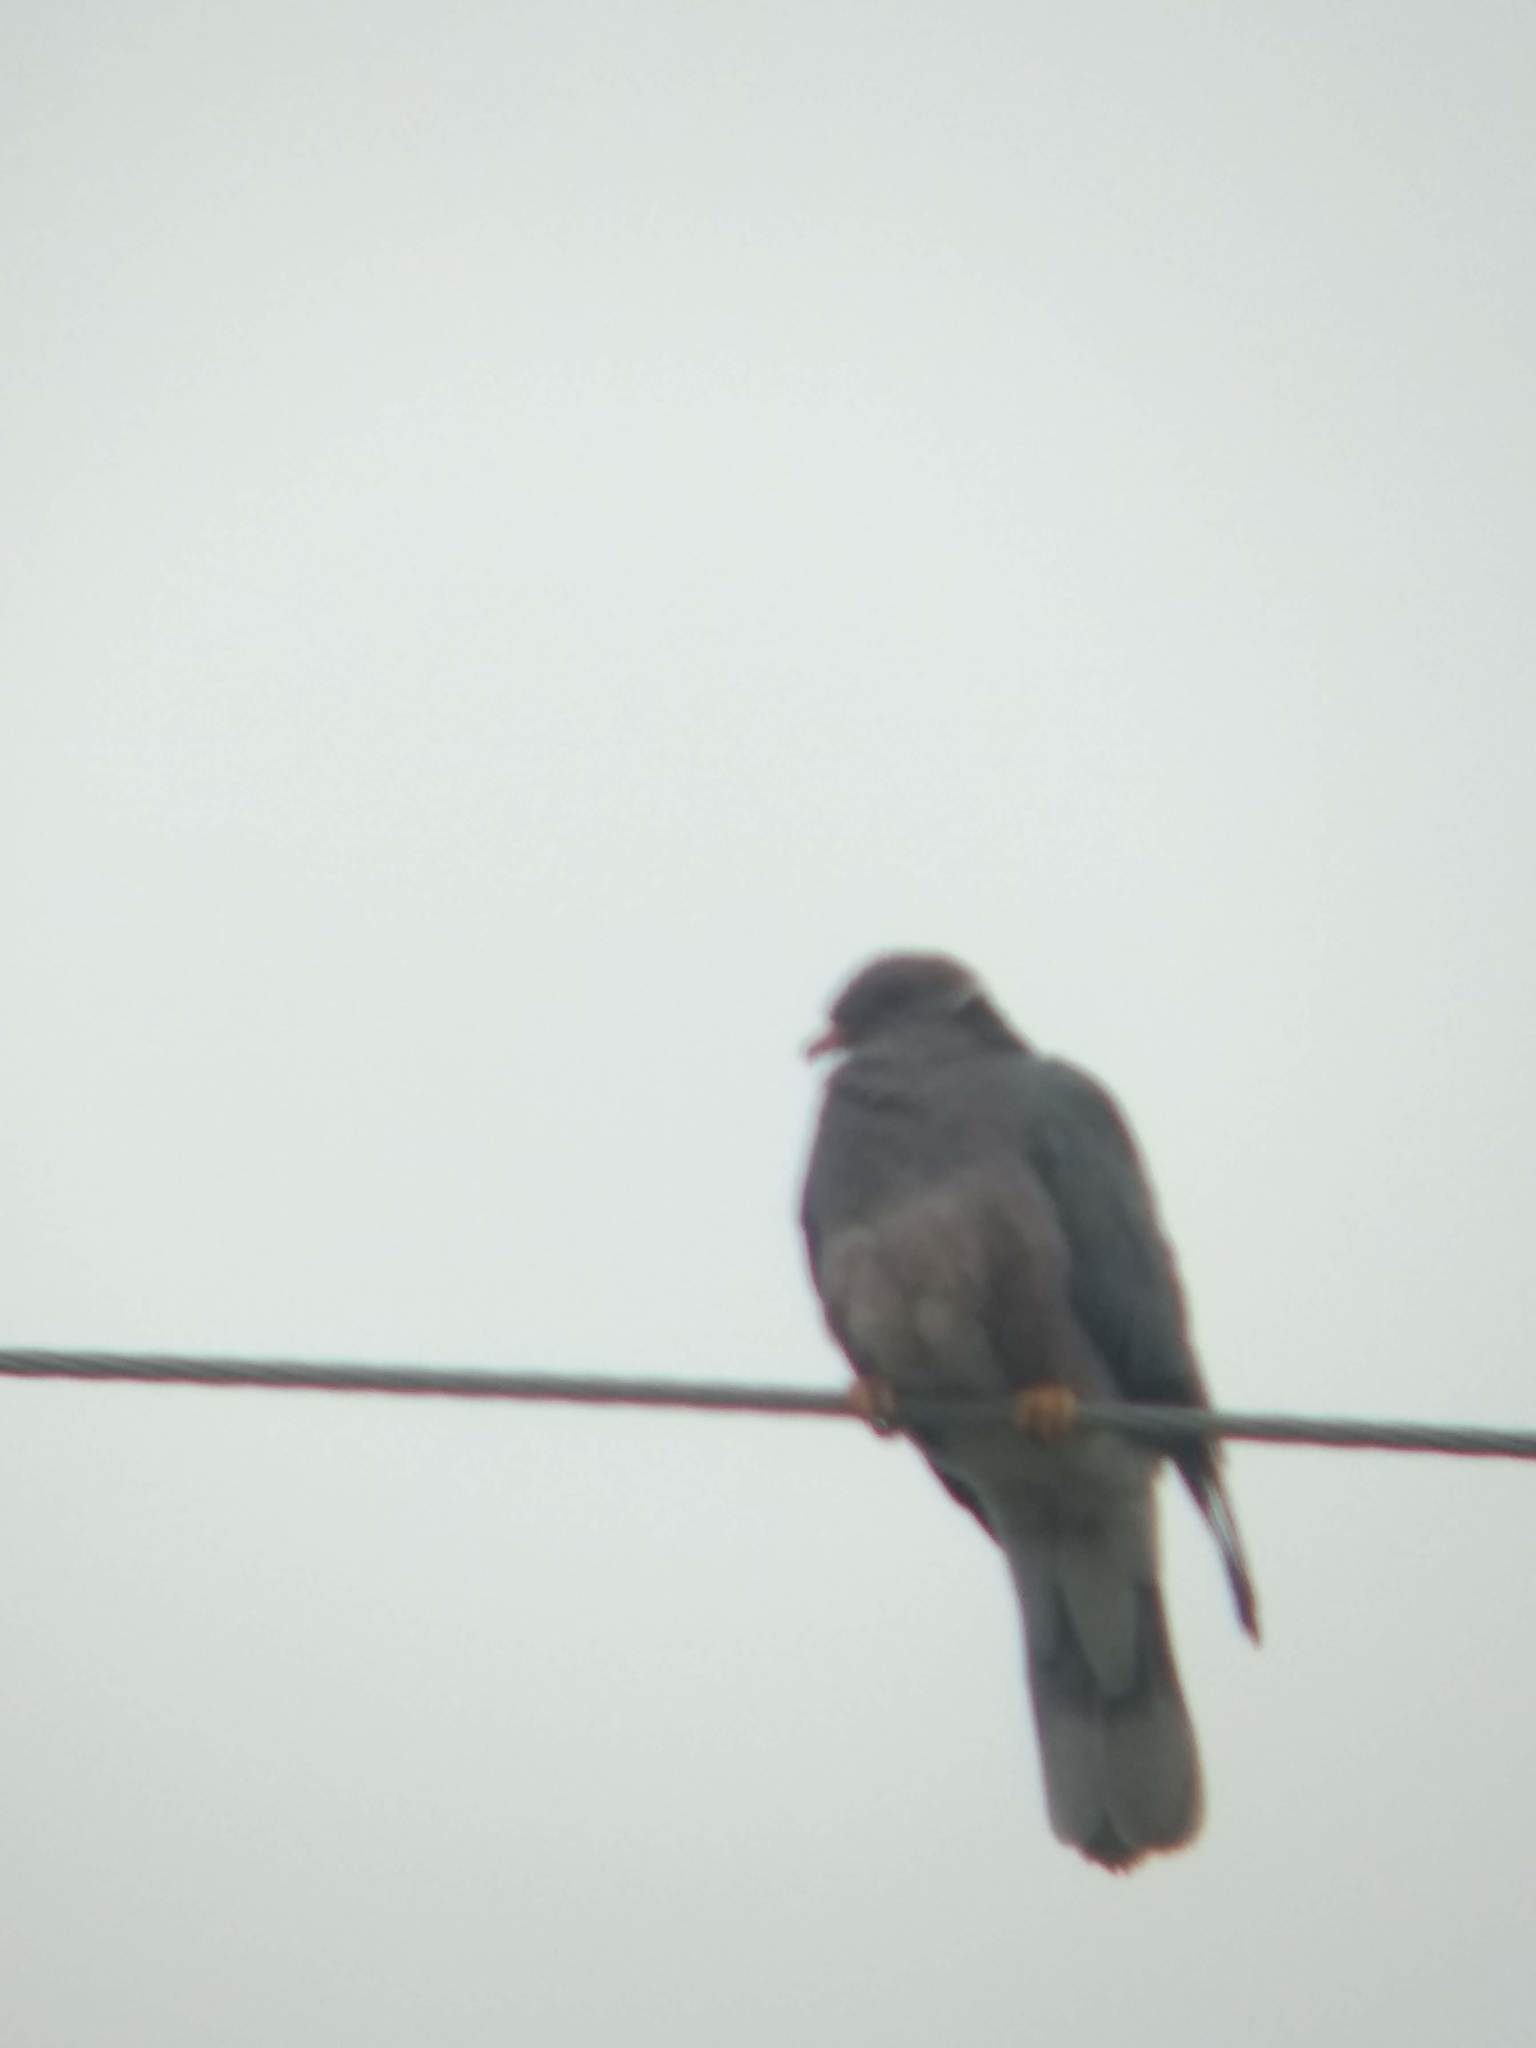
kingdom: Animalia
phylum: Chordata
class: Aves
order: Columbiformes
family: Columbidae
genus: Patagioenas
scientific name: Patagioenas fasciata
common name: Band-tailed pigeon
